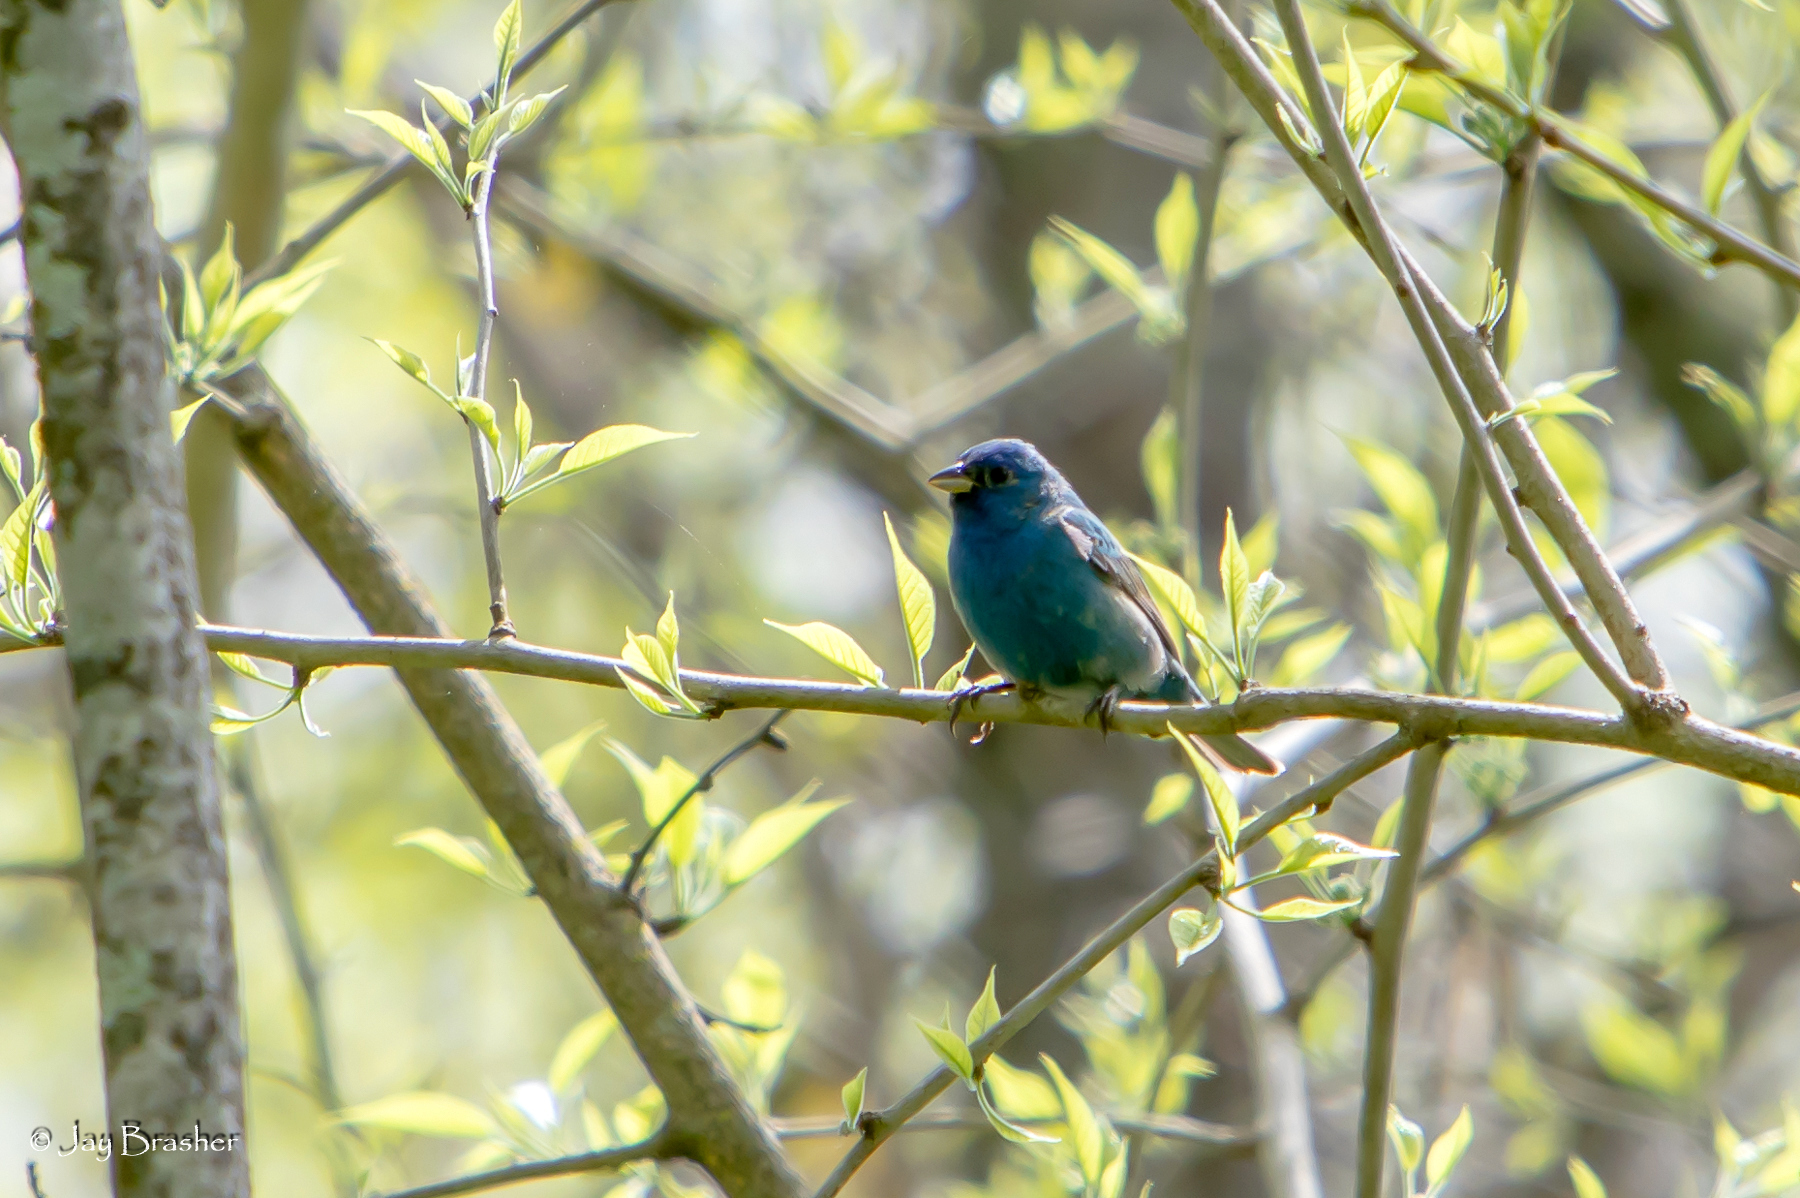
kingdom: Animalia
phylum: Chordata
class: Aves
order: Passeriformes
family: Cardinalidae
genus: Passerina
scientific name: Passerina cyanea
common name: Indigo bunting
